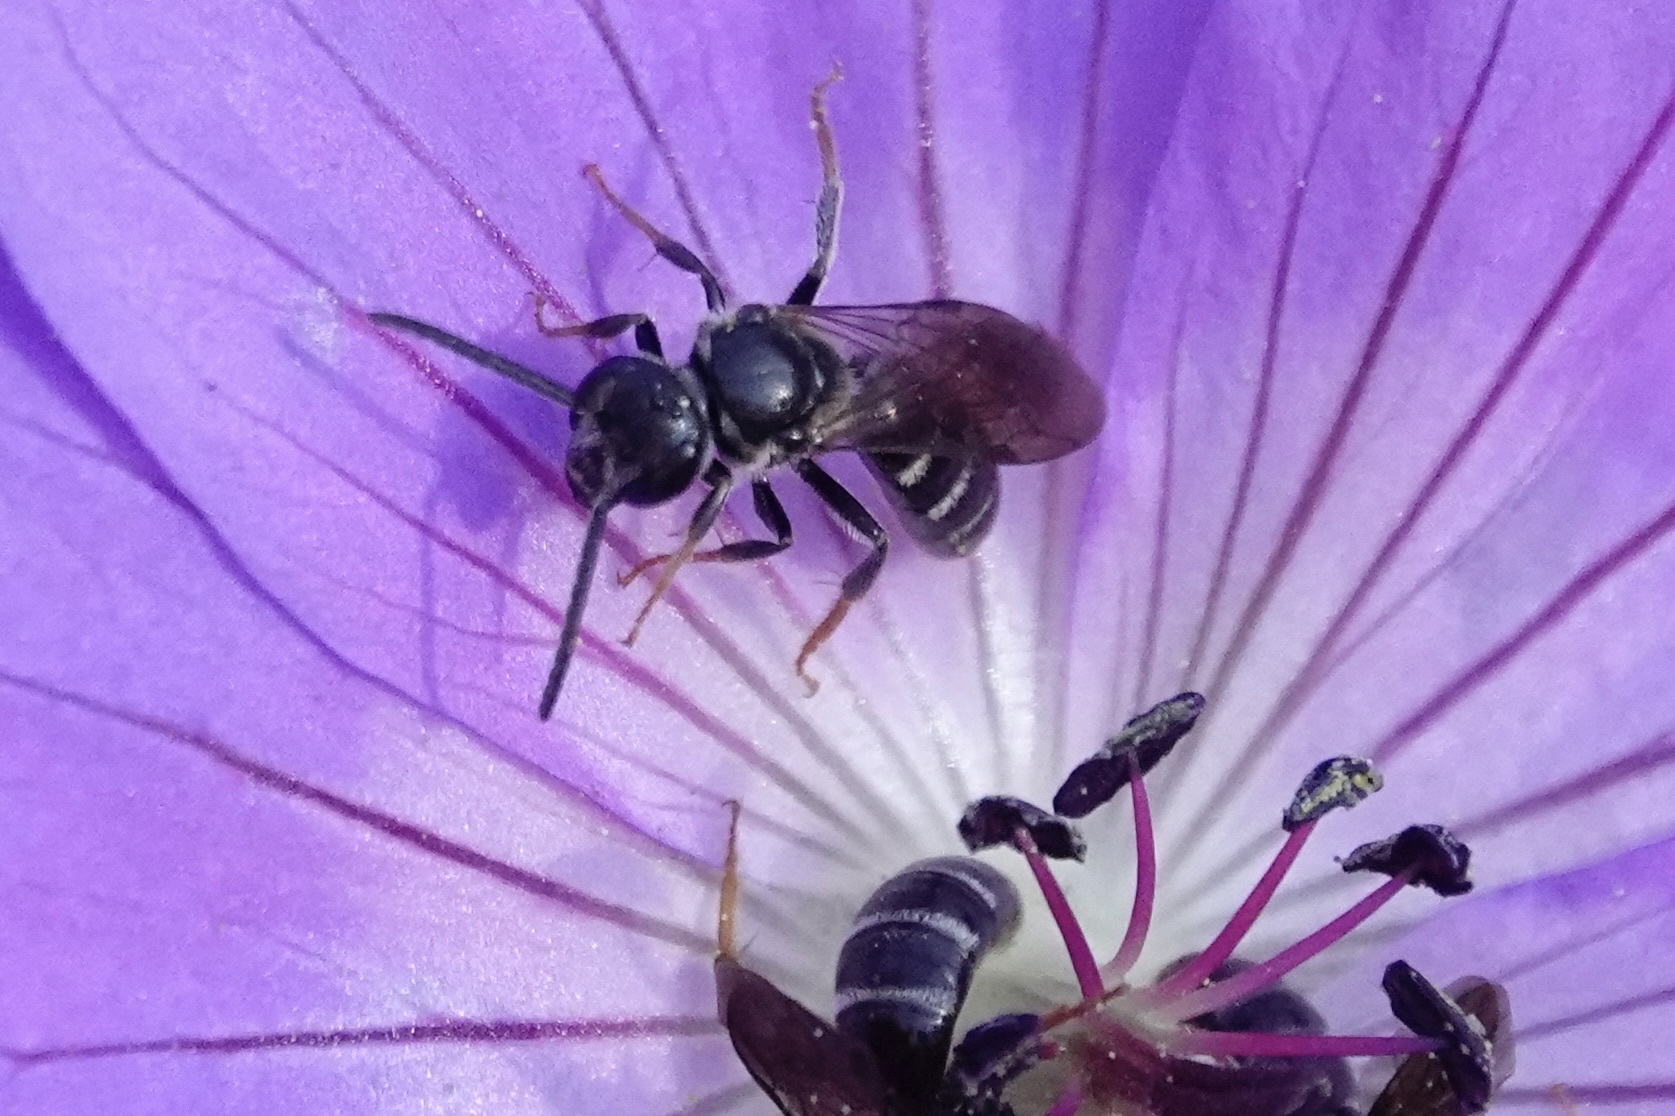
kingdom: Animalia
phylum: Arthropoda
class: Insecta
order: Hymenoptera
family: Halictidae
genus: Lasioglossum
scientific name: Lasioglossum fuscipenne
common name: Brown-winged sweat bee
